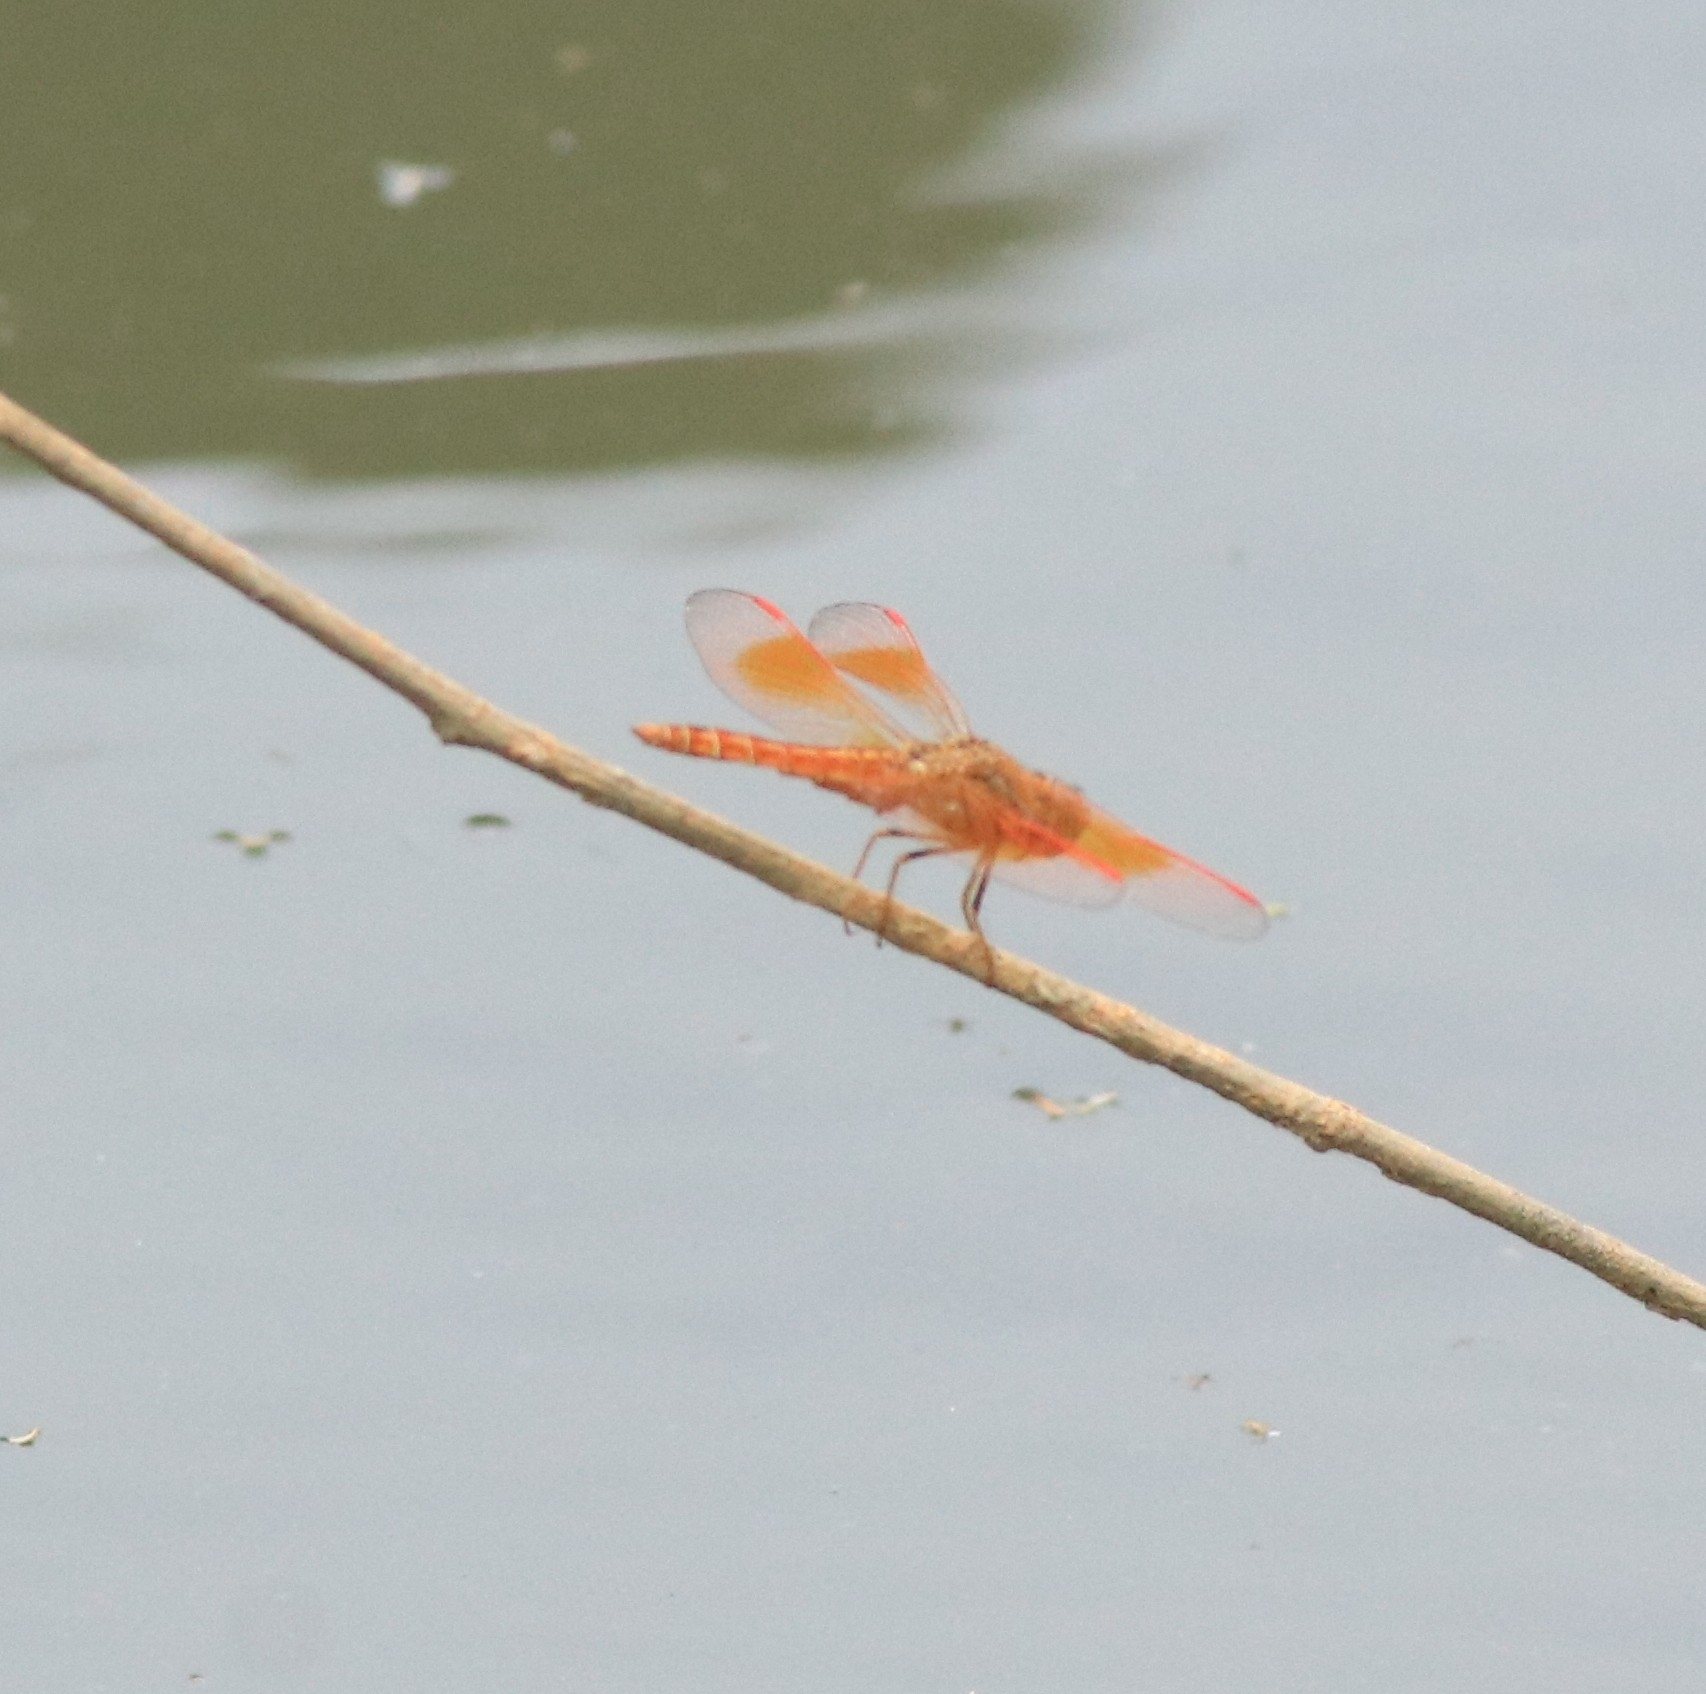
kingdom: Animalia
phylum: Arthropoda
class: Insecta
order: Odonata
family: Libellulidae
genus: Brachythemis
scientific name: Brachythemis contaminata
